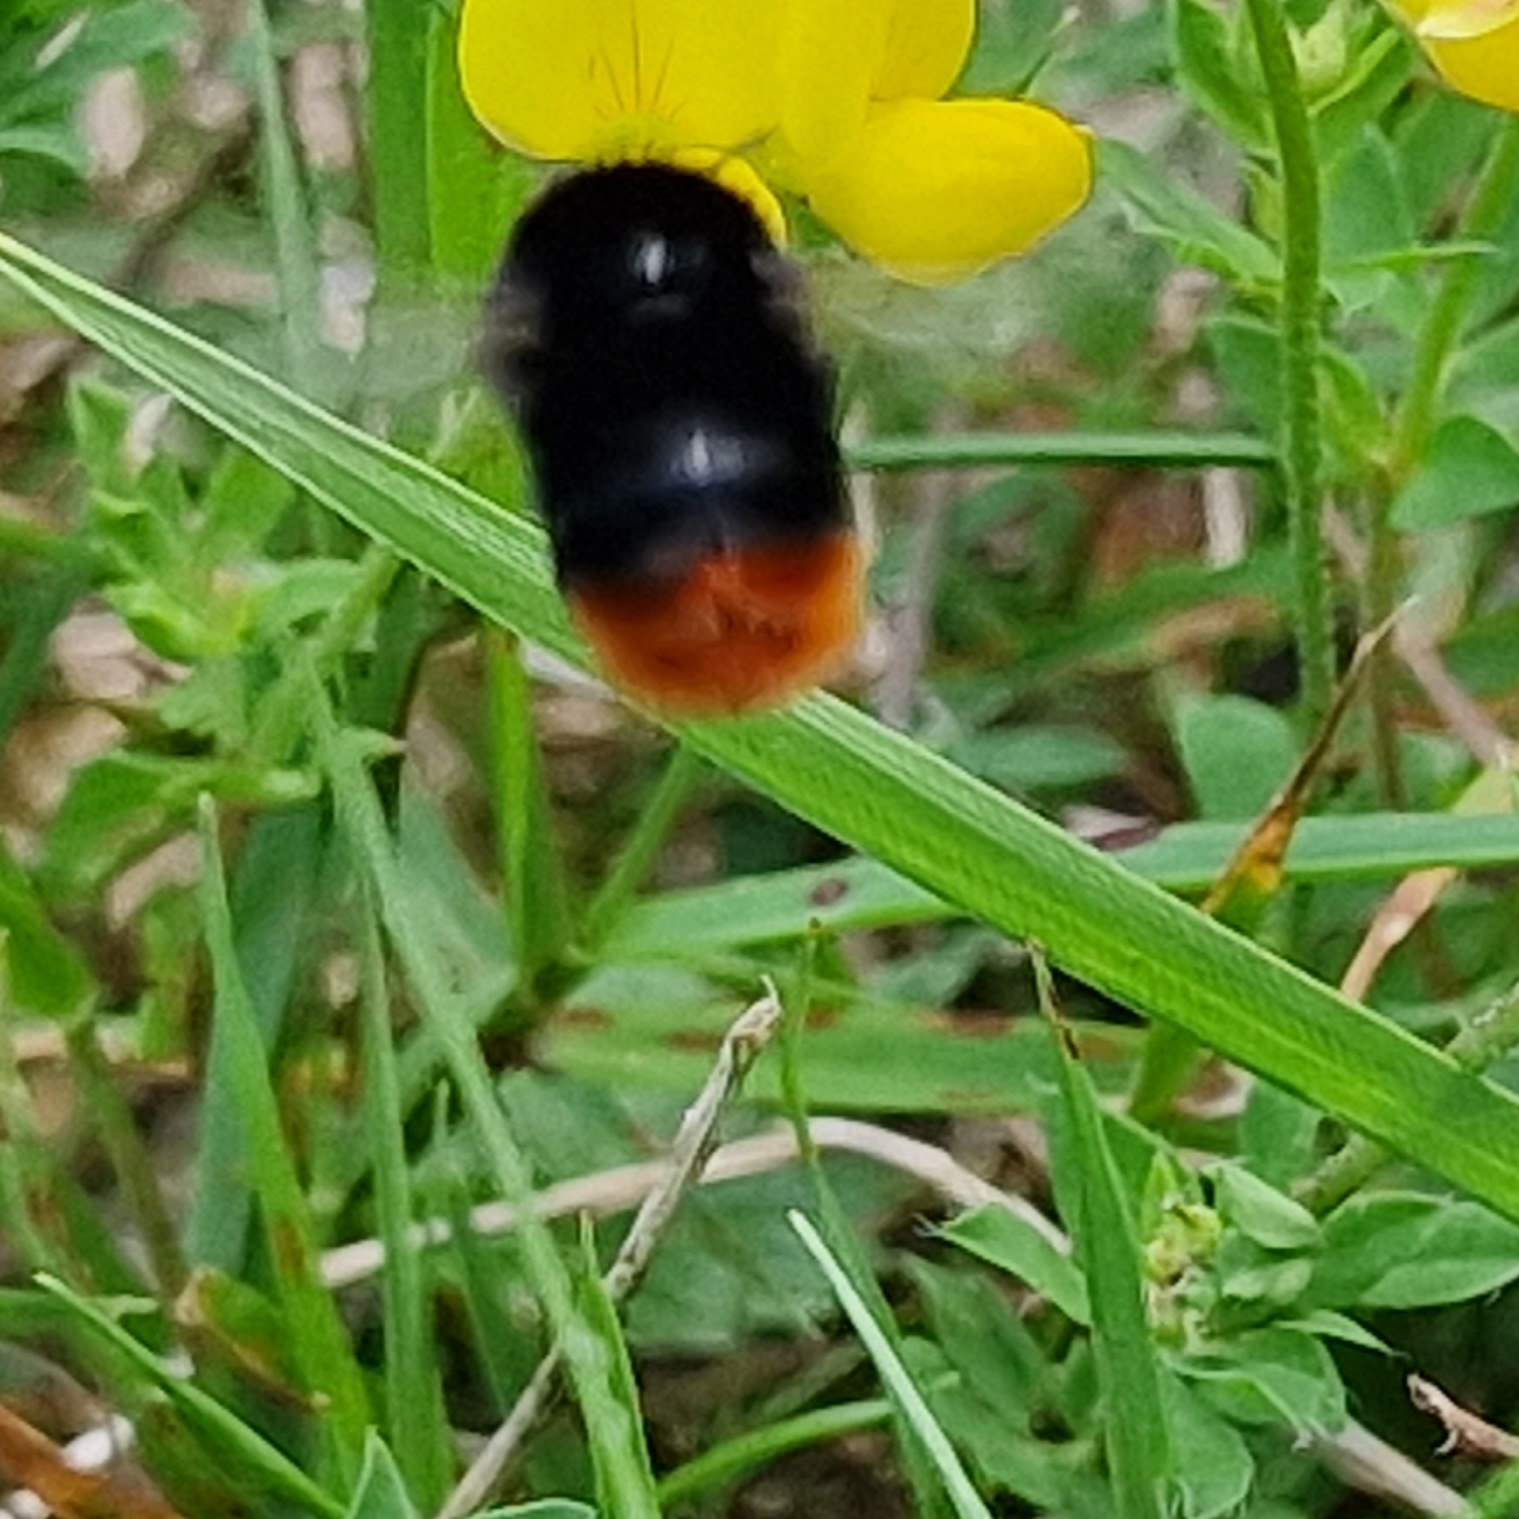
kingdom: Animalia
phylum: Arthropoda
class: Insecta
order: Hymenoptera
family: Apidae
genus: Bombus
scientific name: Bombus lapidarius
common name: Large red-tailed humble-bee
